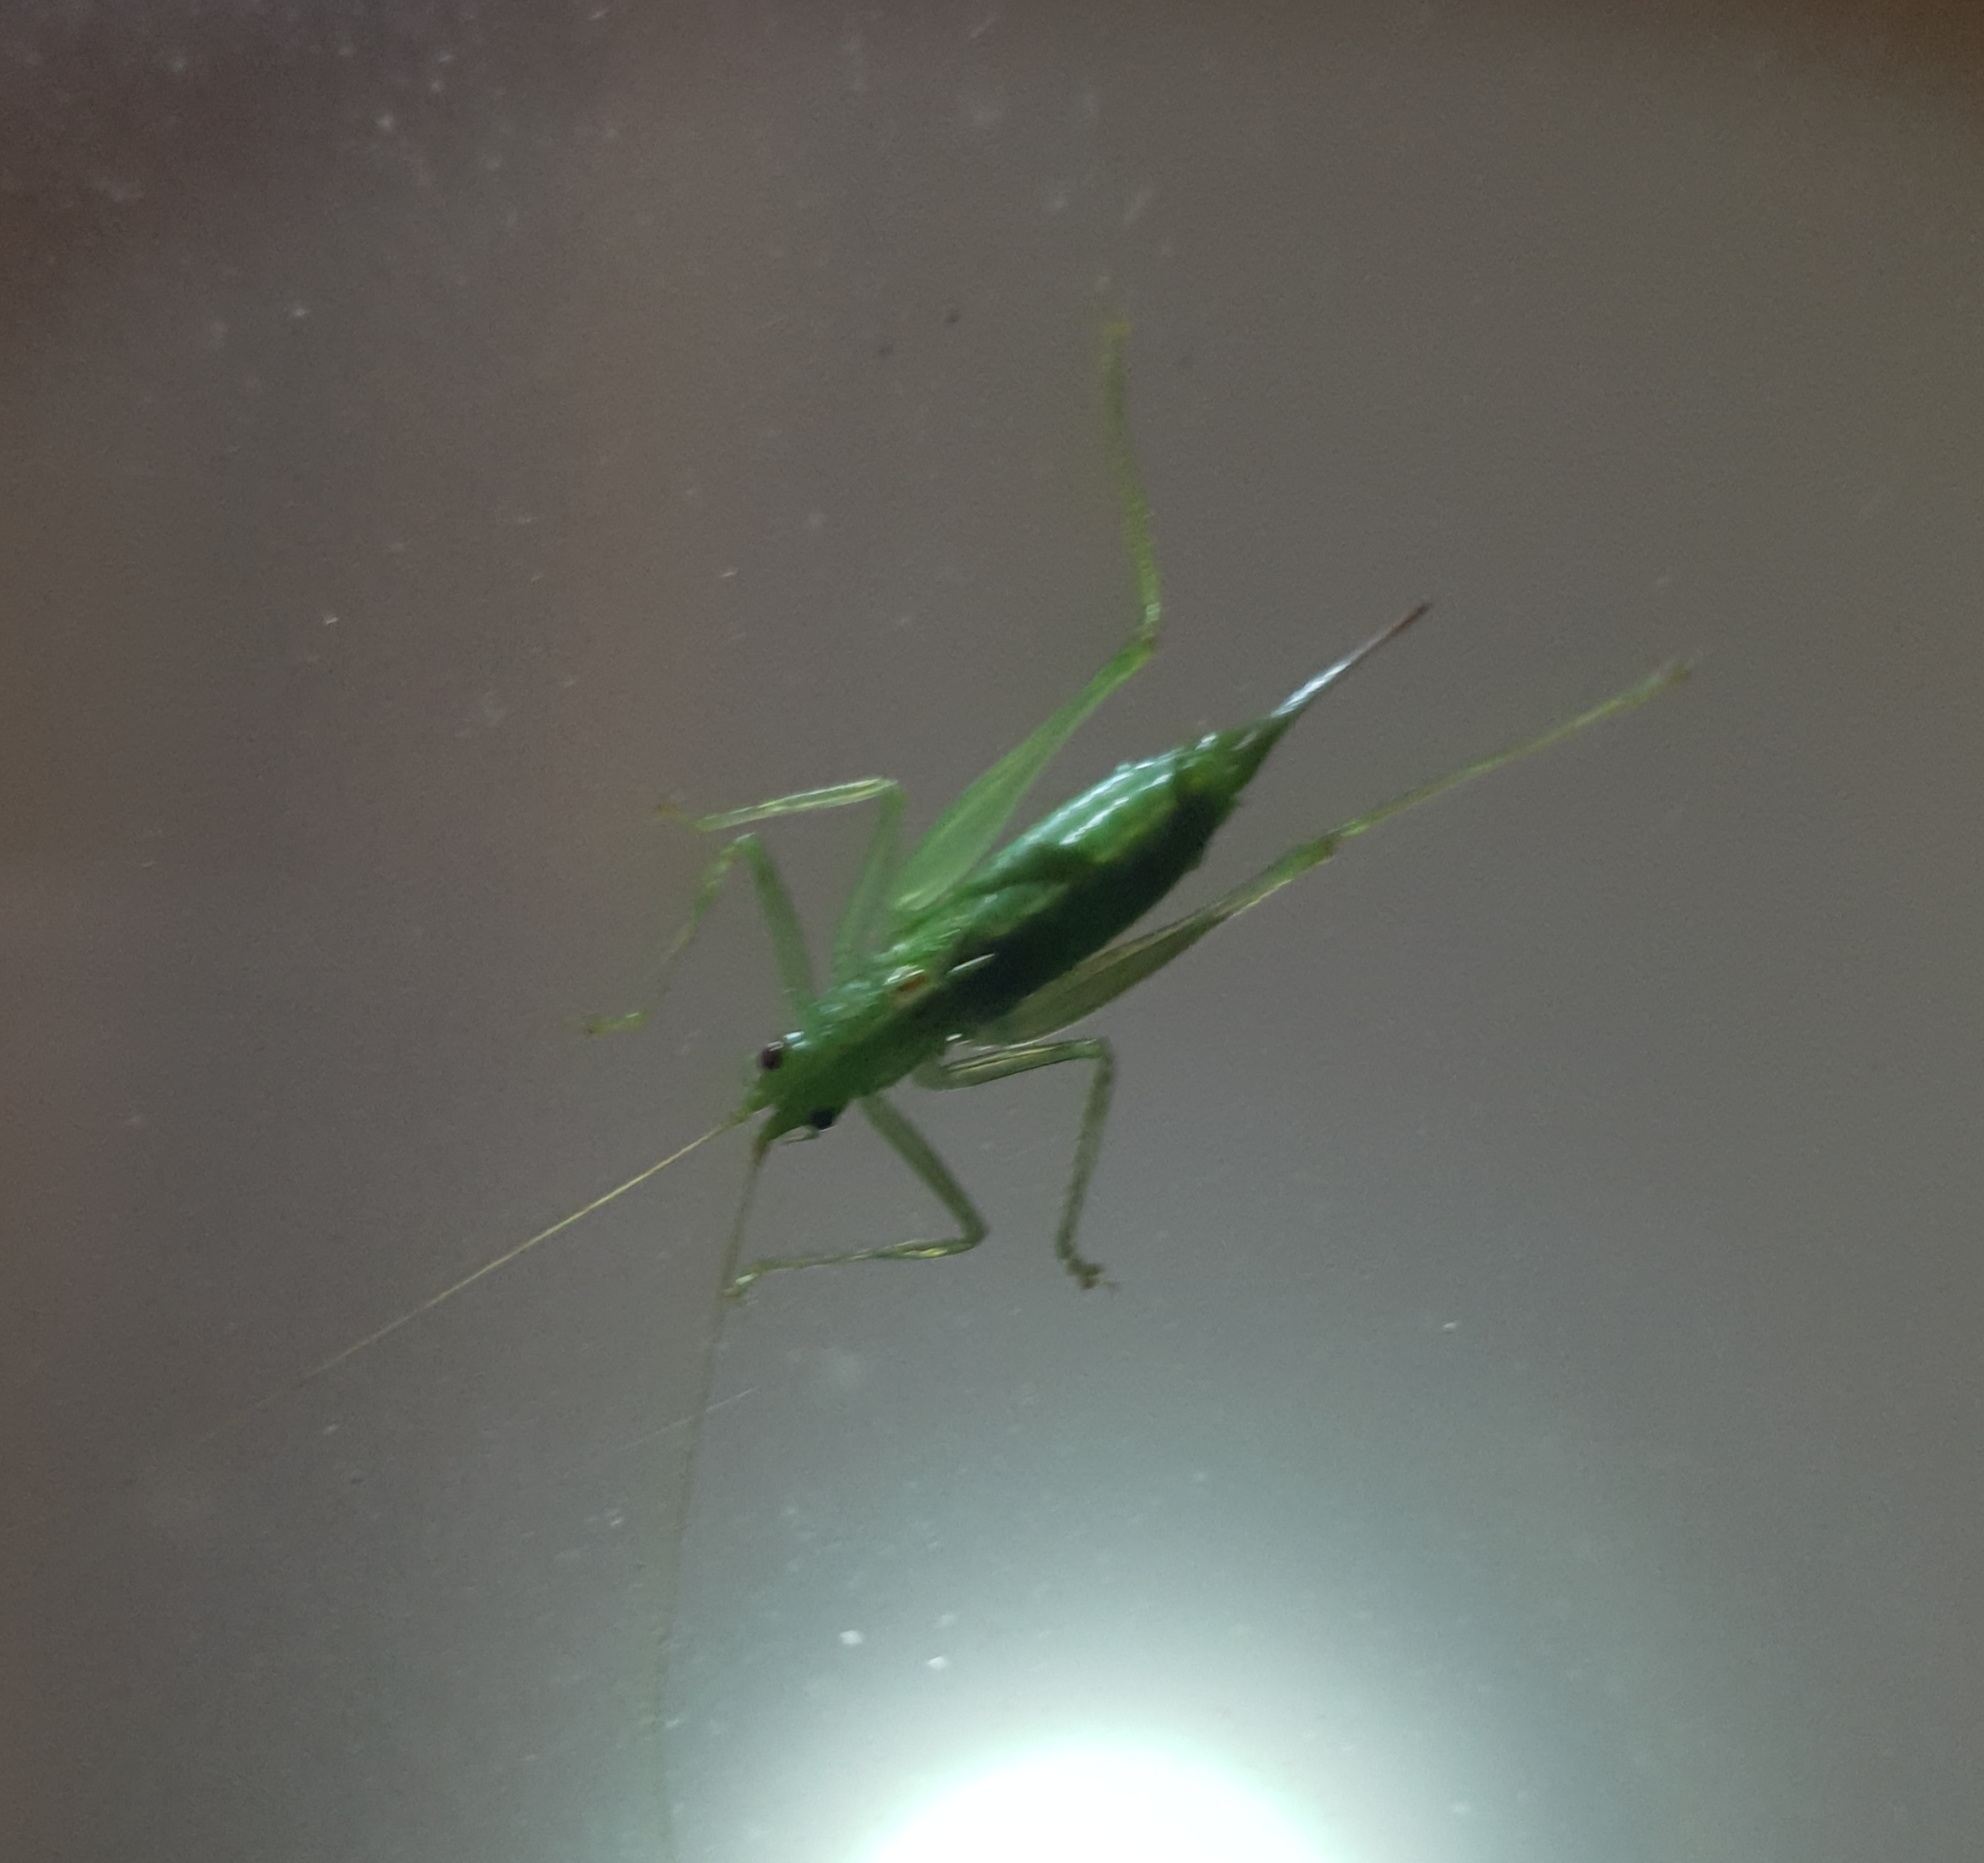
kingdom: Animalia
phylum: Arthropoda
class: Insecta
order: Orthoptera
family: Tettigoniidae
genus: Meconema
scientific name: Meconema meridionale
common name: Southern oak bush-cricket
